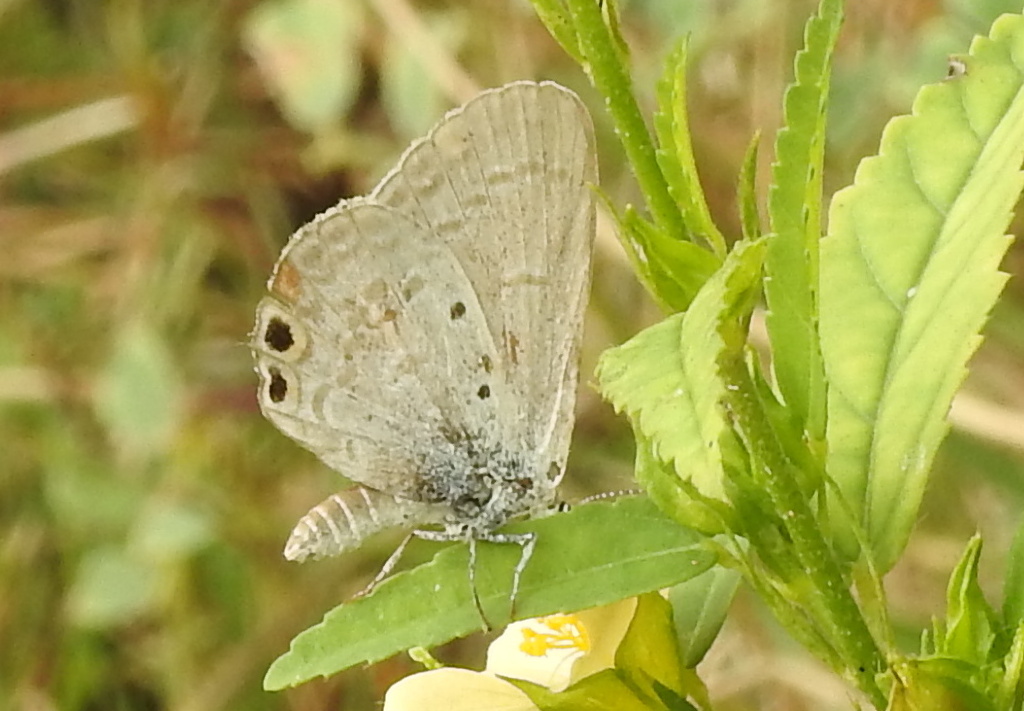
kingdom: Animalia
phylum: Arthropoda
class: Insecta
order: Lepidoptera
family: Lycaenidae
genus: Euchrysops
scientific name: Euchrysops cnejus
